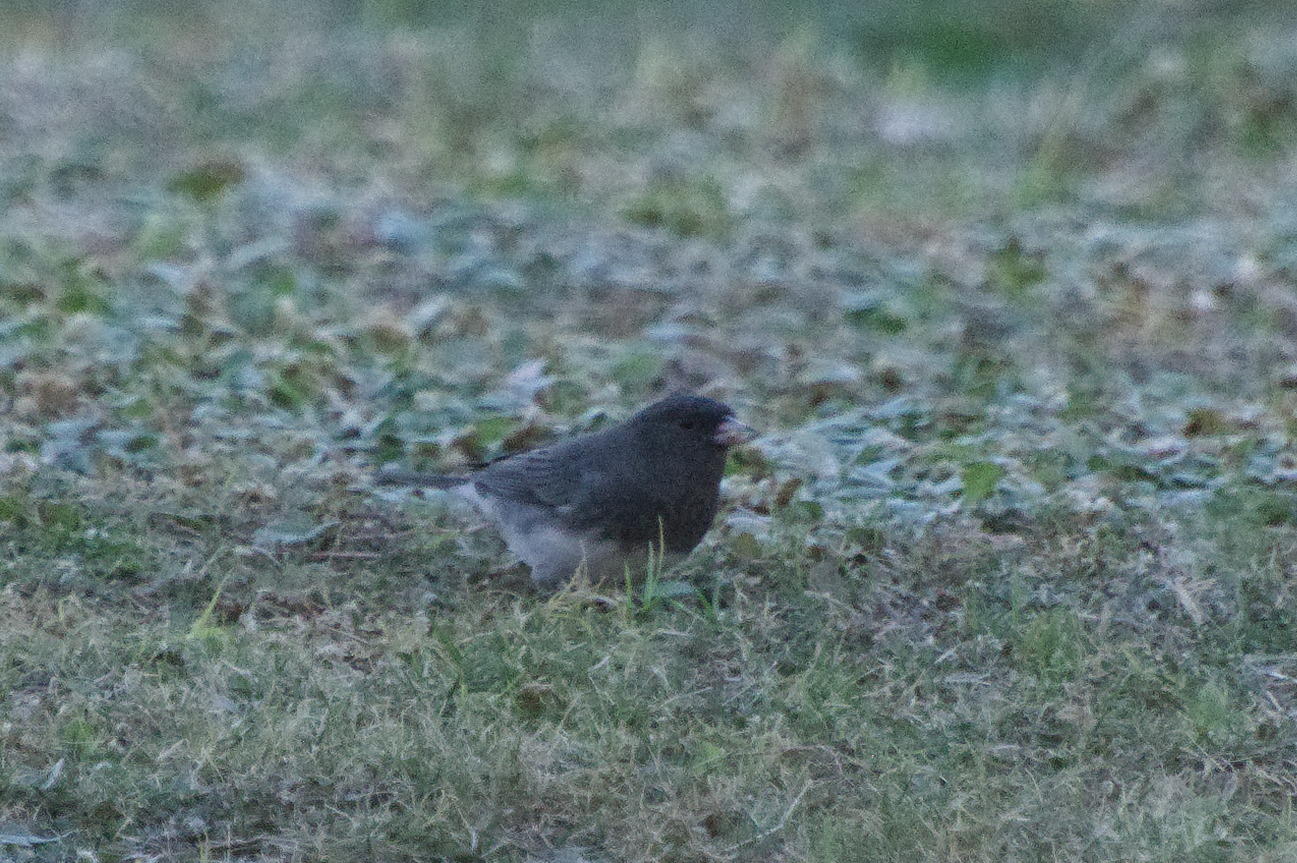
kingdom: Animalia
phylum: Chordata
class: Aves
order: Passeriformes
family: Passerellidae
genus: Junco
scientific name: Junco hyemalis
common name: Dark-eyed junco
